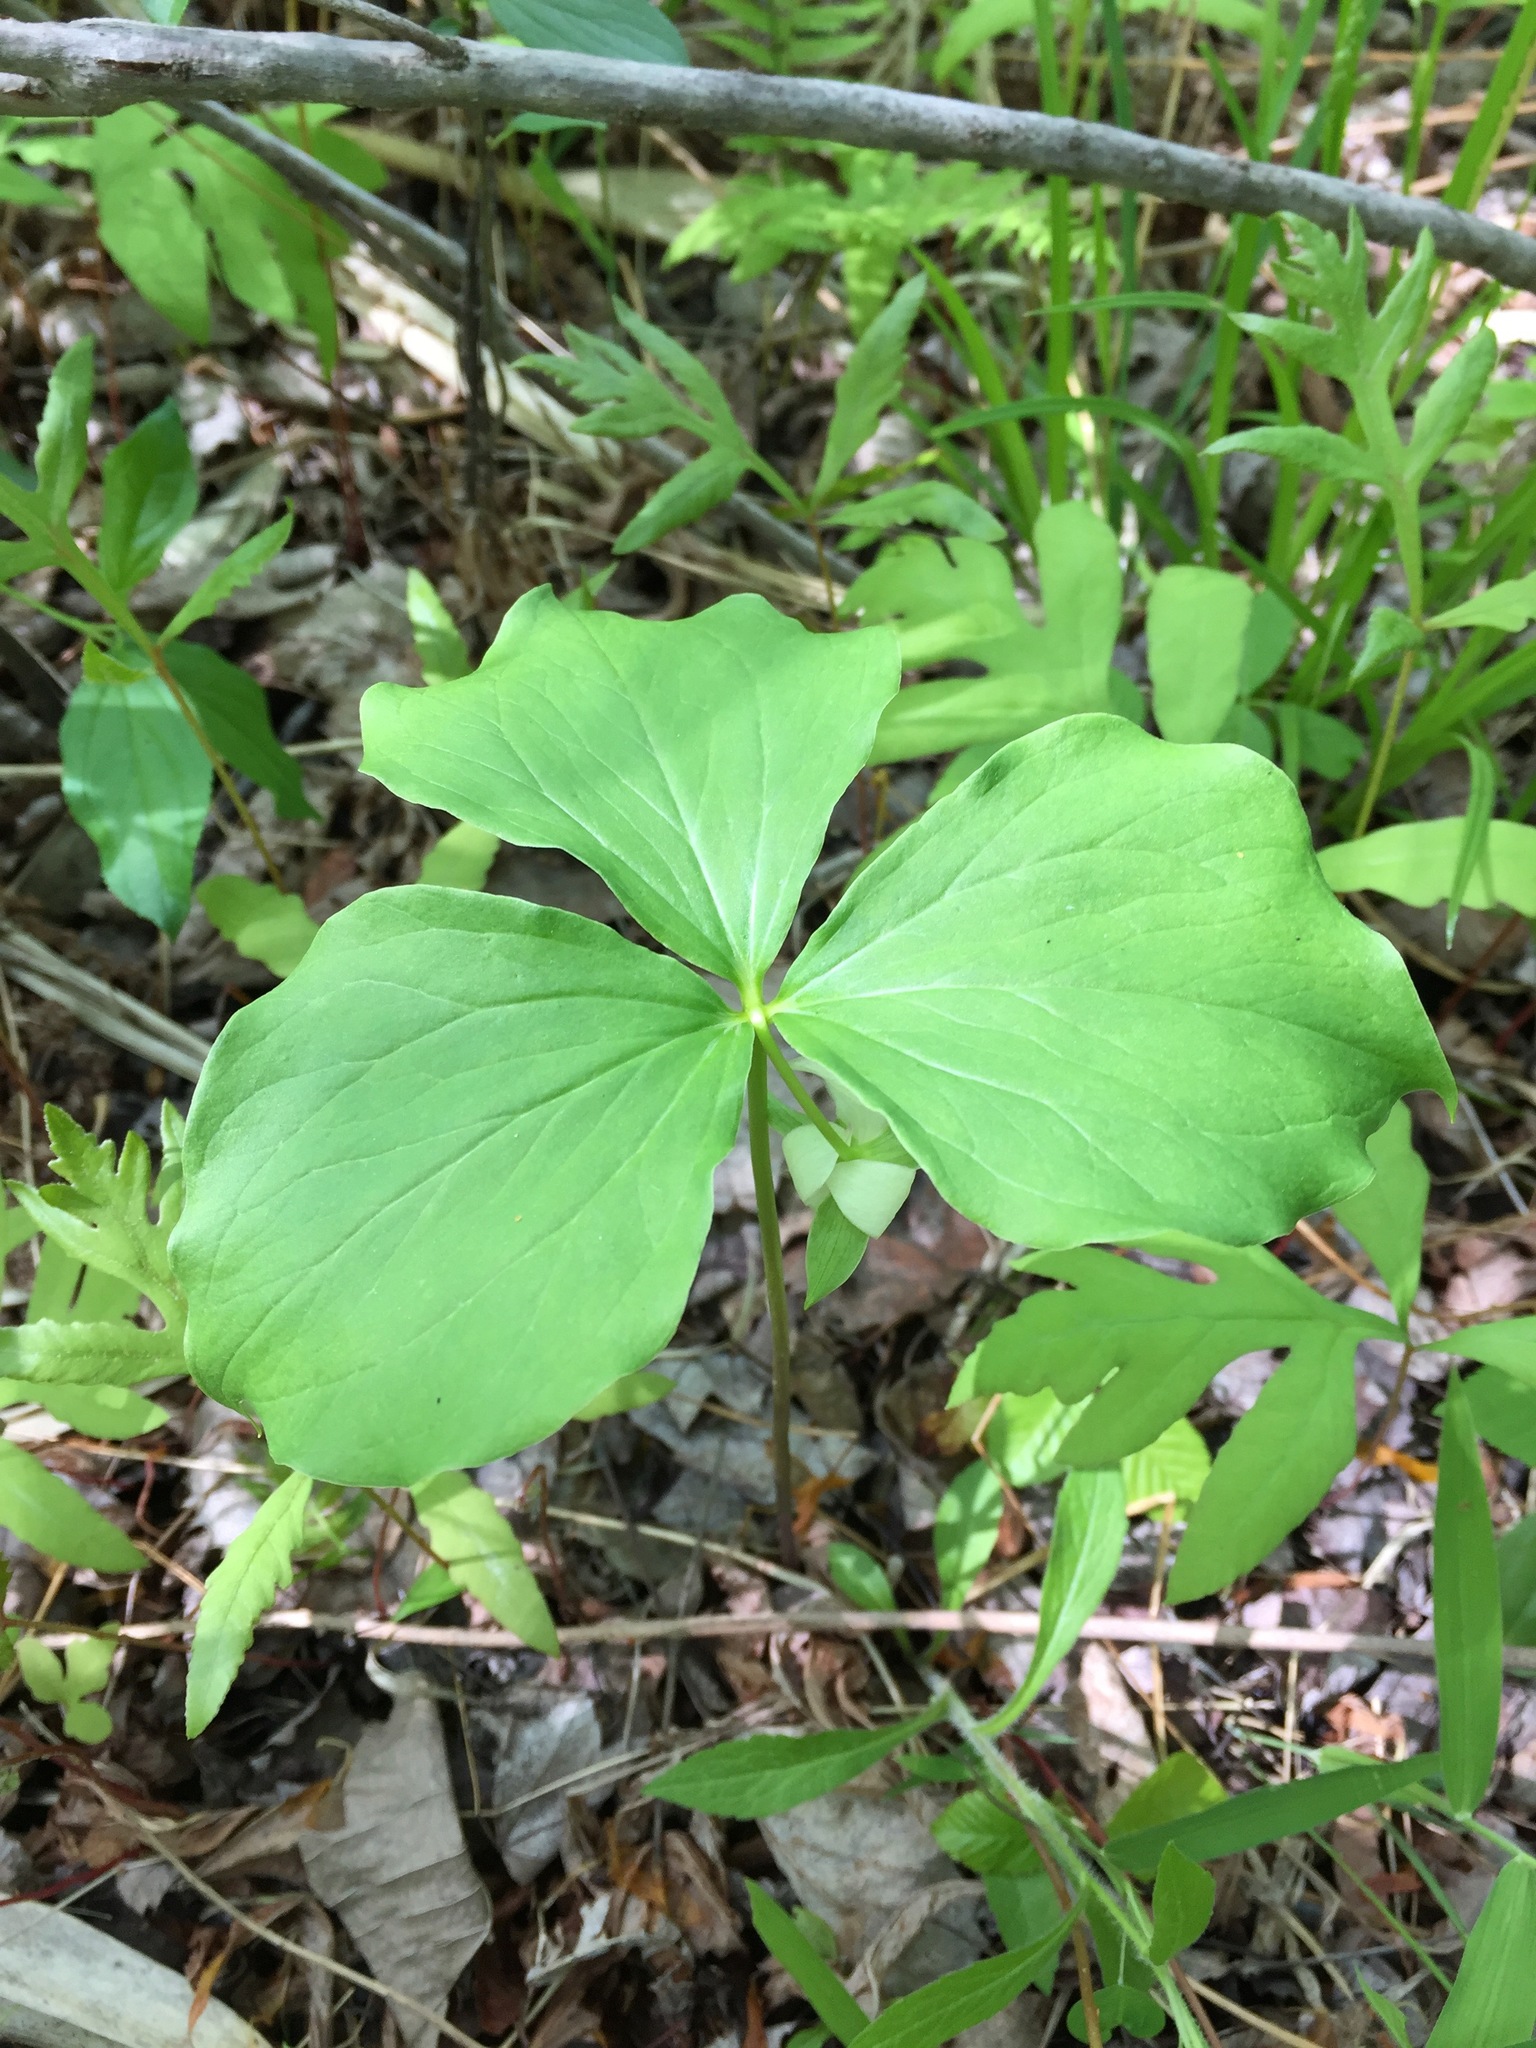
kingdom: Plantae
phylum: Tracheophyta
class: Liliopsida
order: Liliales
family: Melanthiaceae
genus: Trillium
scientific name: Trillium cernuum
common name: Nodding trillium
